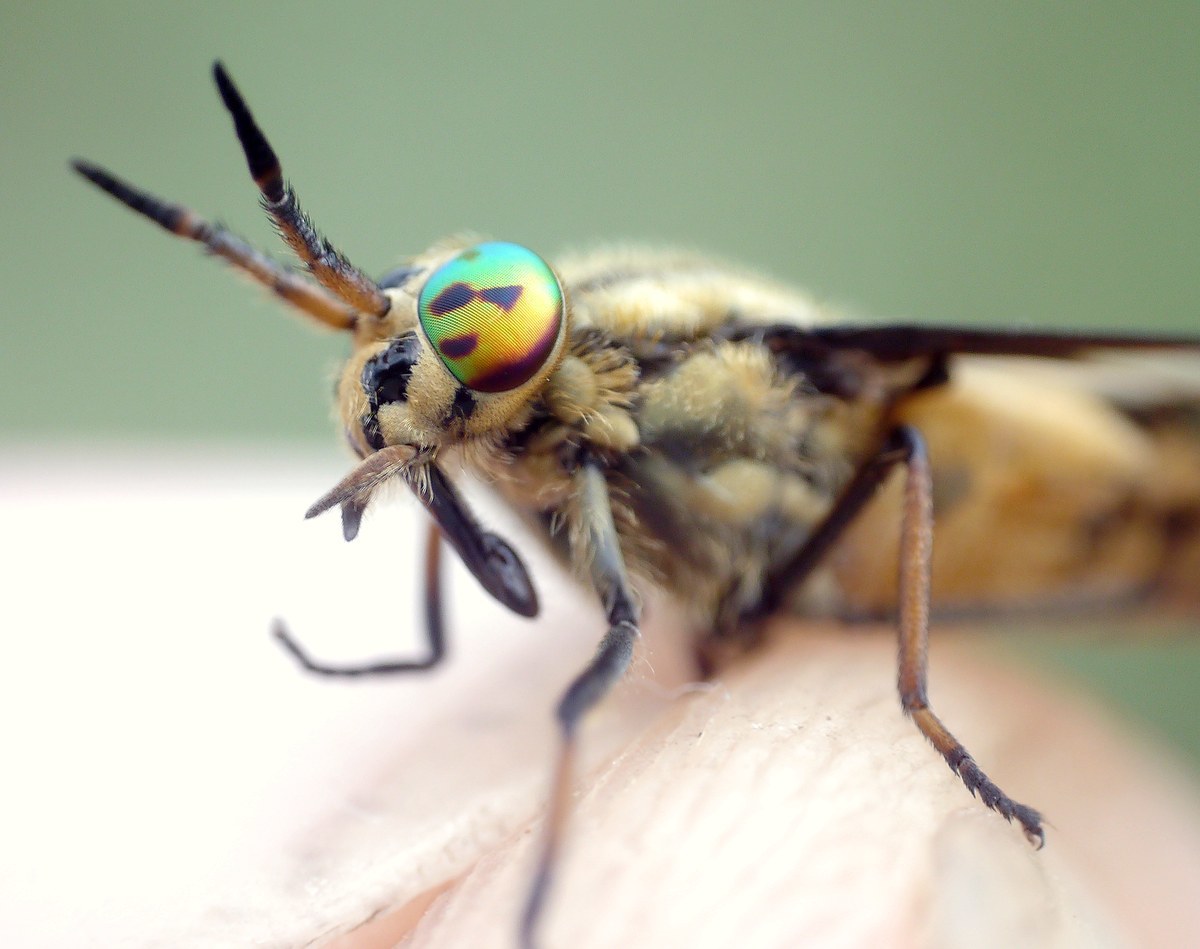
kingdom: Animalia
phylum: Arthropoda
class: Insecta
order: Diptera
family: Tabanidae
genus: Chrysops
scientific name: Chrysops relictus
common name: Twin-lobed deerfly
